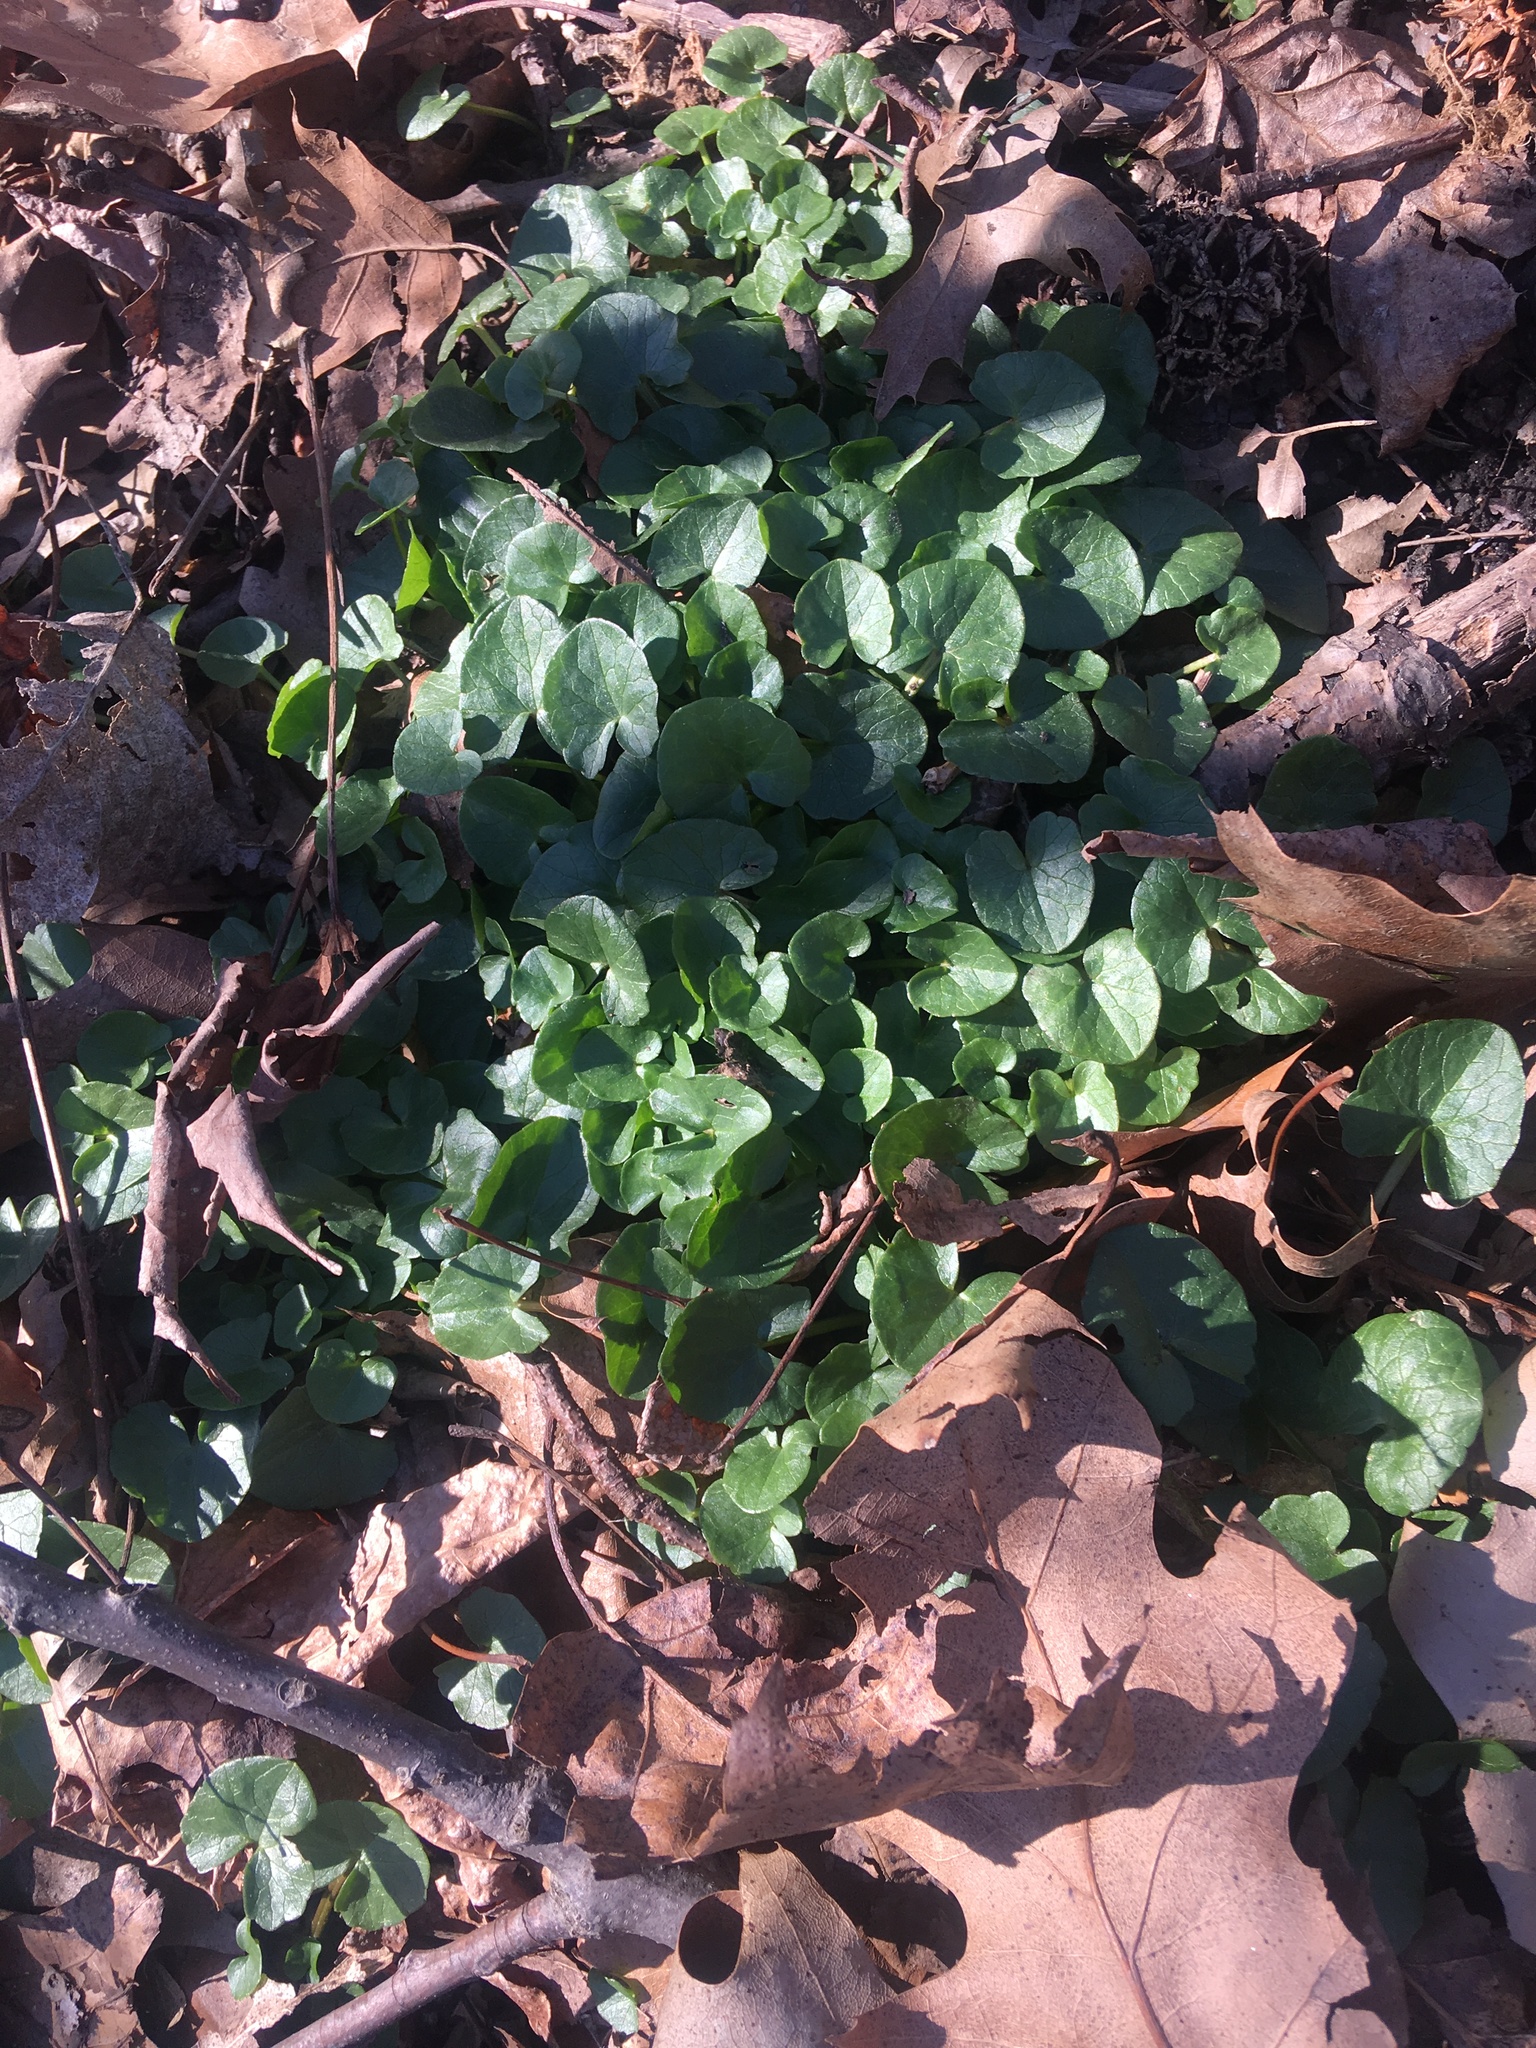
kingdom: Plantae
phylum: Tracheophyta
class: Magnoliopsida
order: Ranunculales
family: Ranunculaceae
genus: Ficaria
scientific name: Ficaria verna
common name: Lesser celandine
